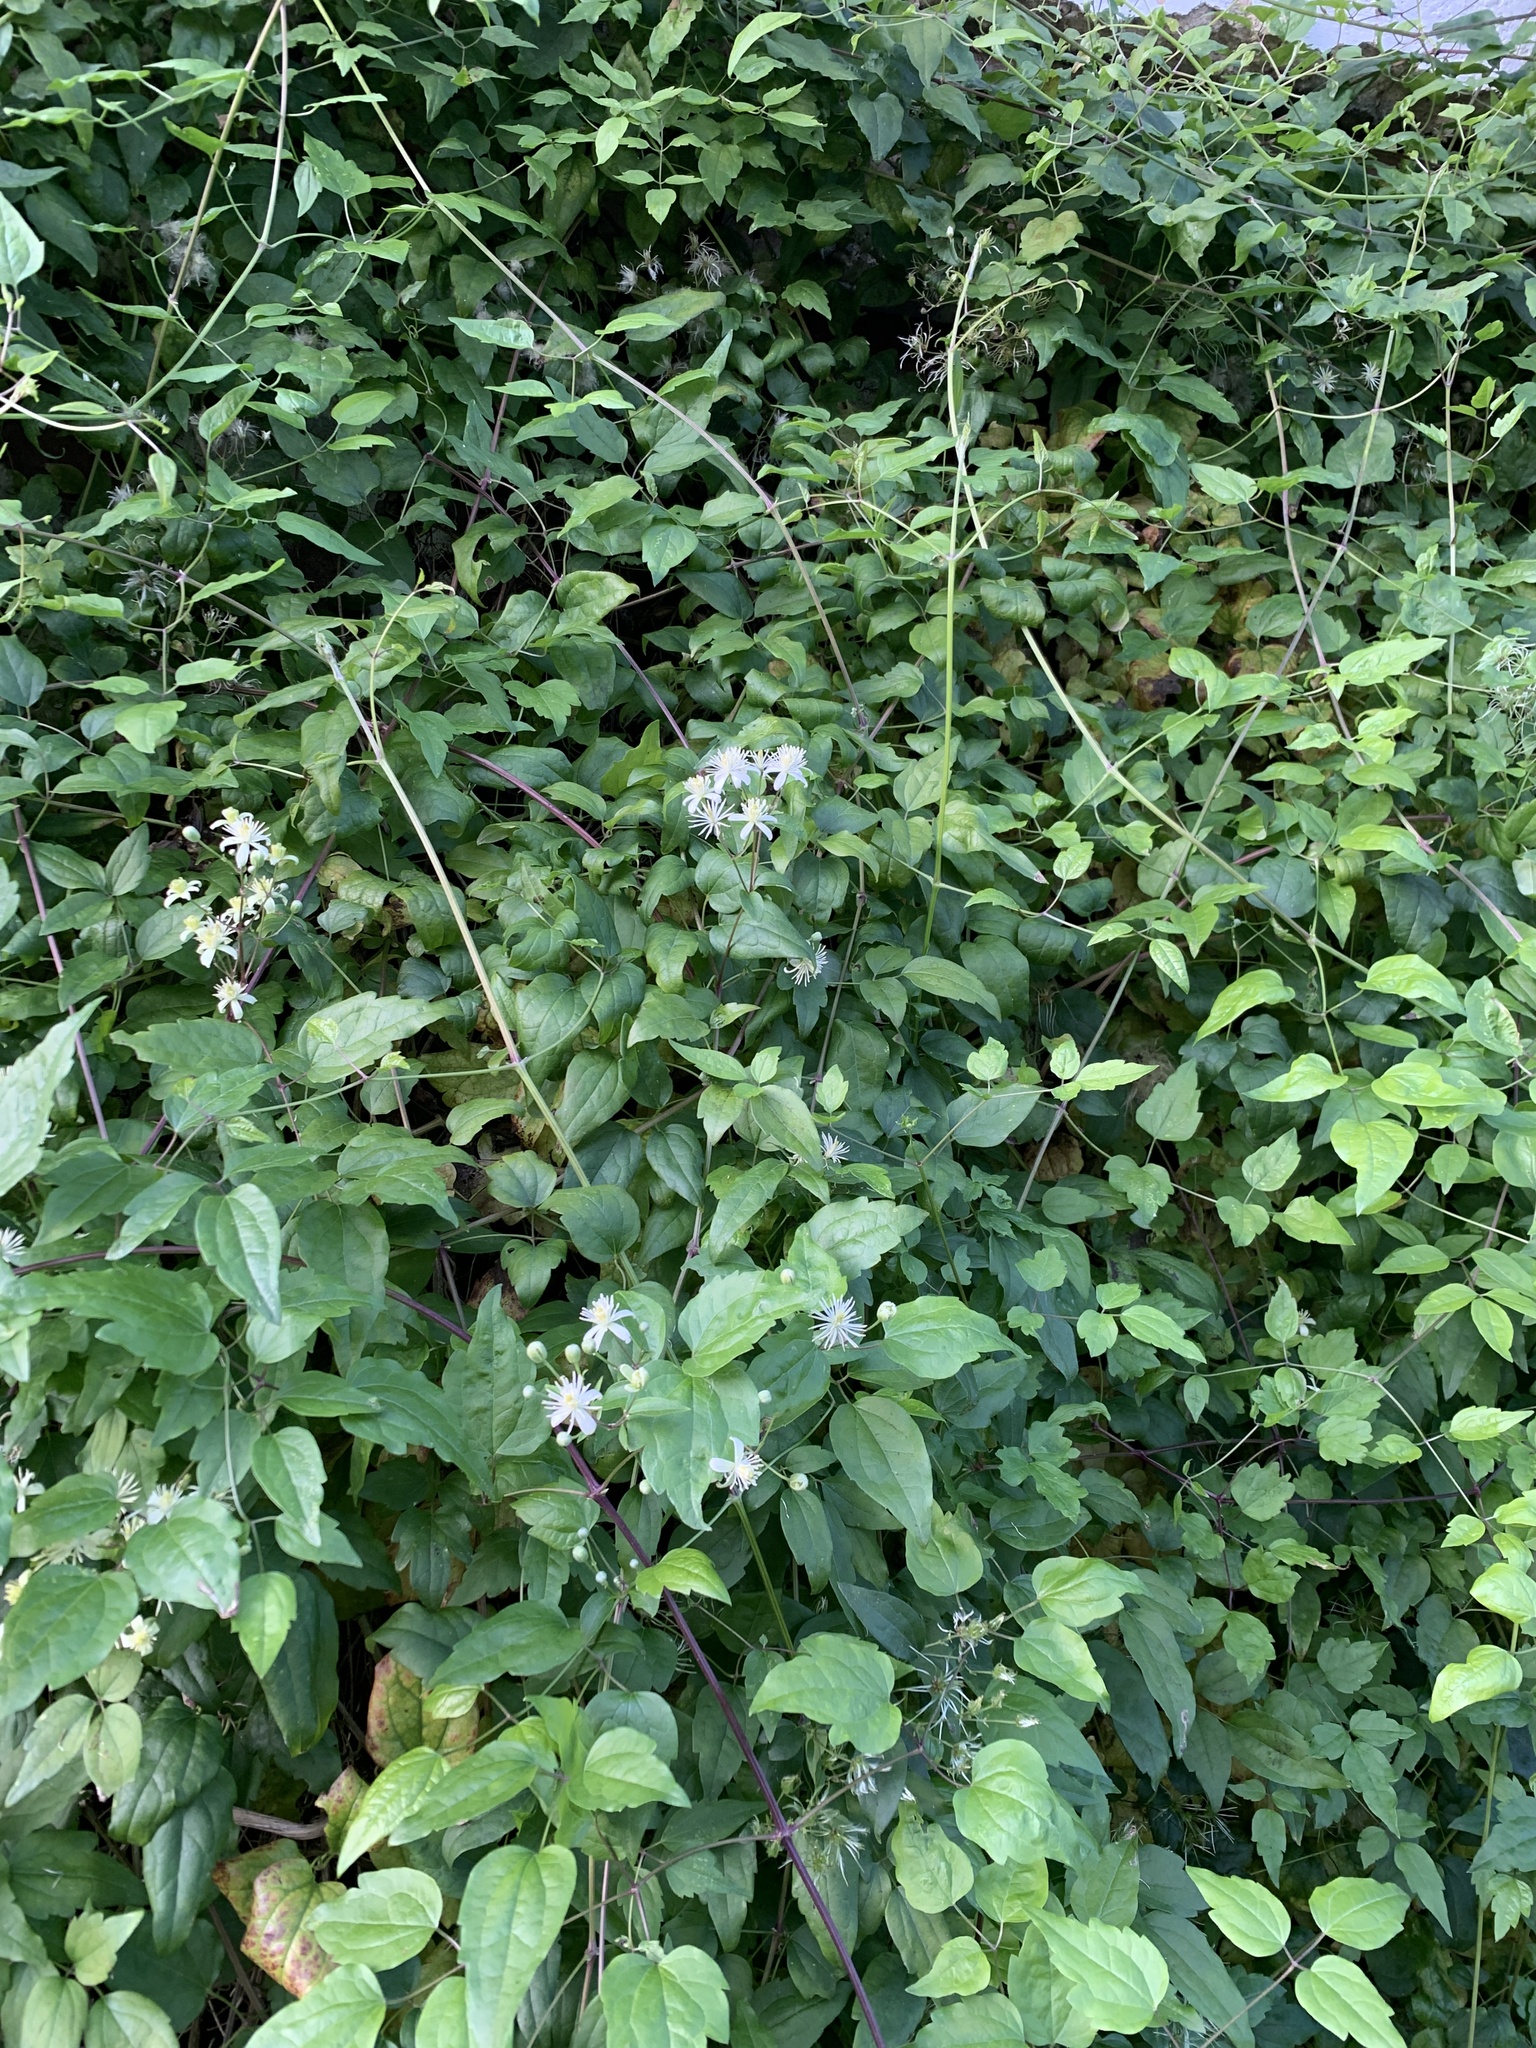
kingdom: Plantae
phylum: Tracheophyta
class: Magnoliopsida
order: Ranunculales
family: Ranunculaceae
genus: Clematis
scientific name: Clematis vitalba
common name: Evergreen clematis
